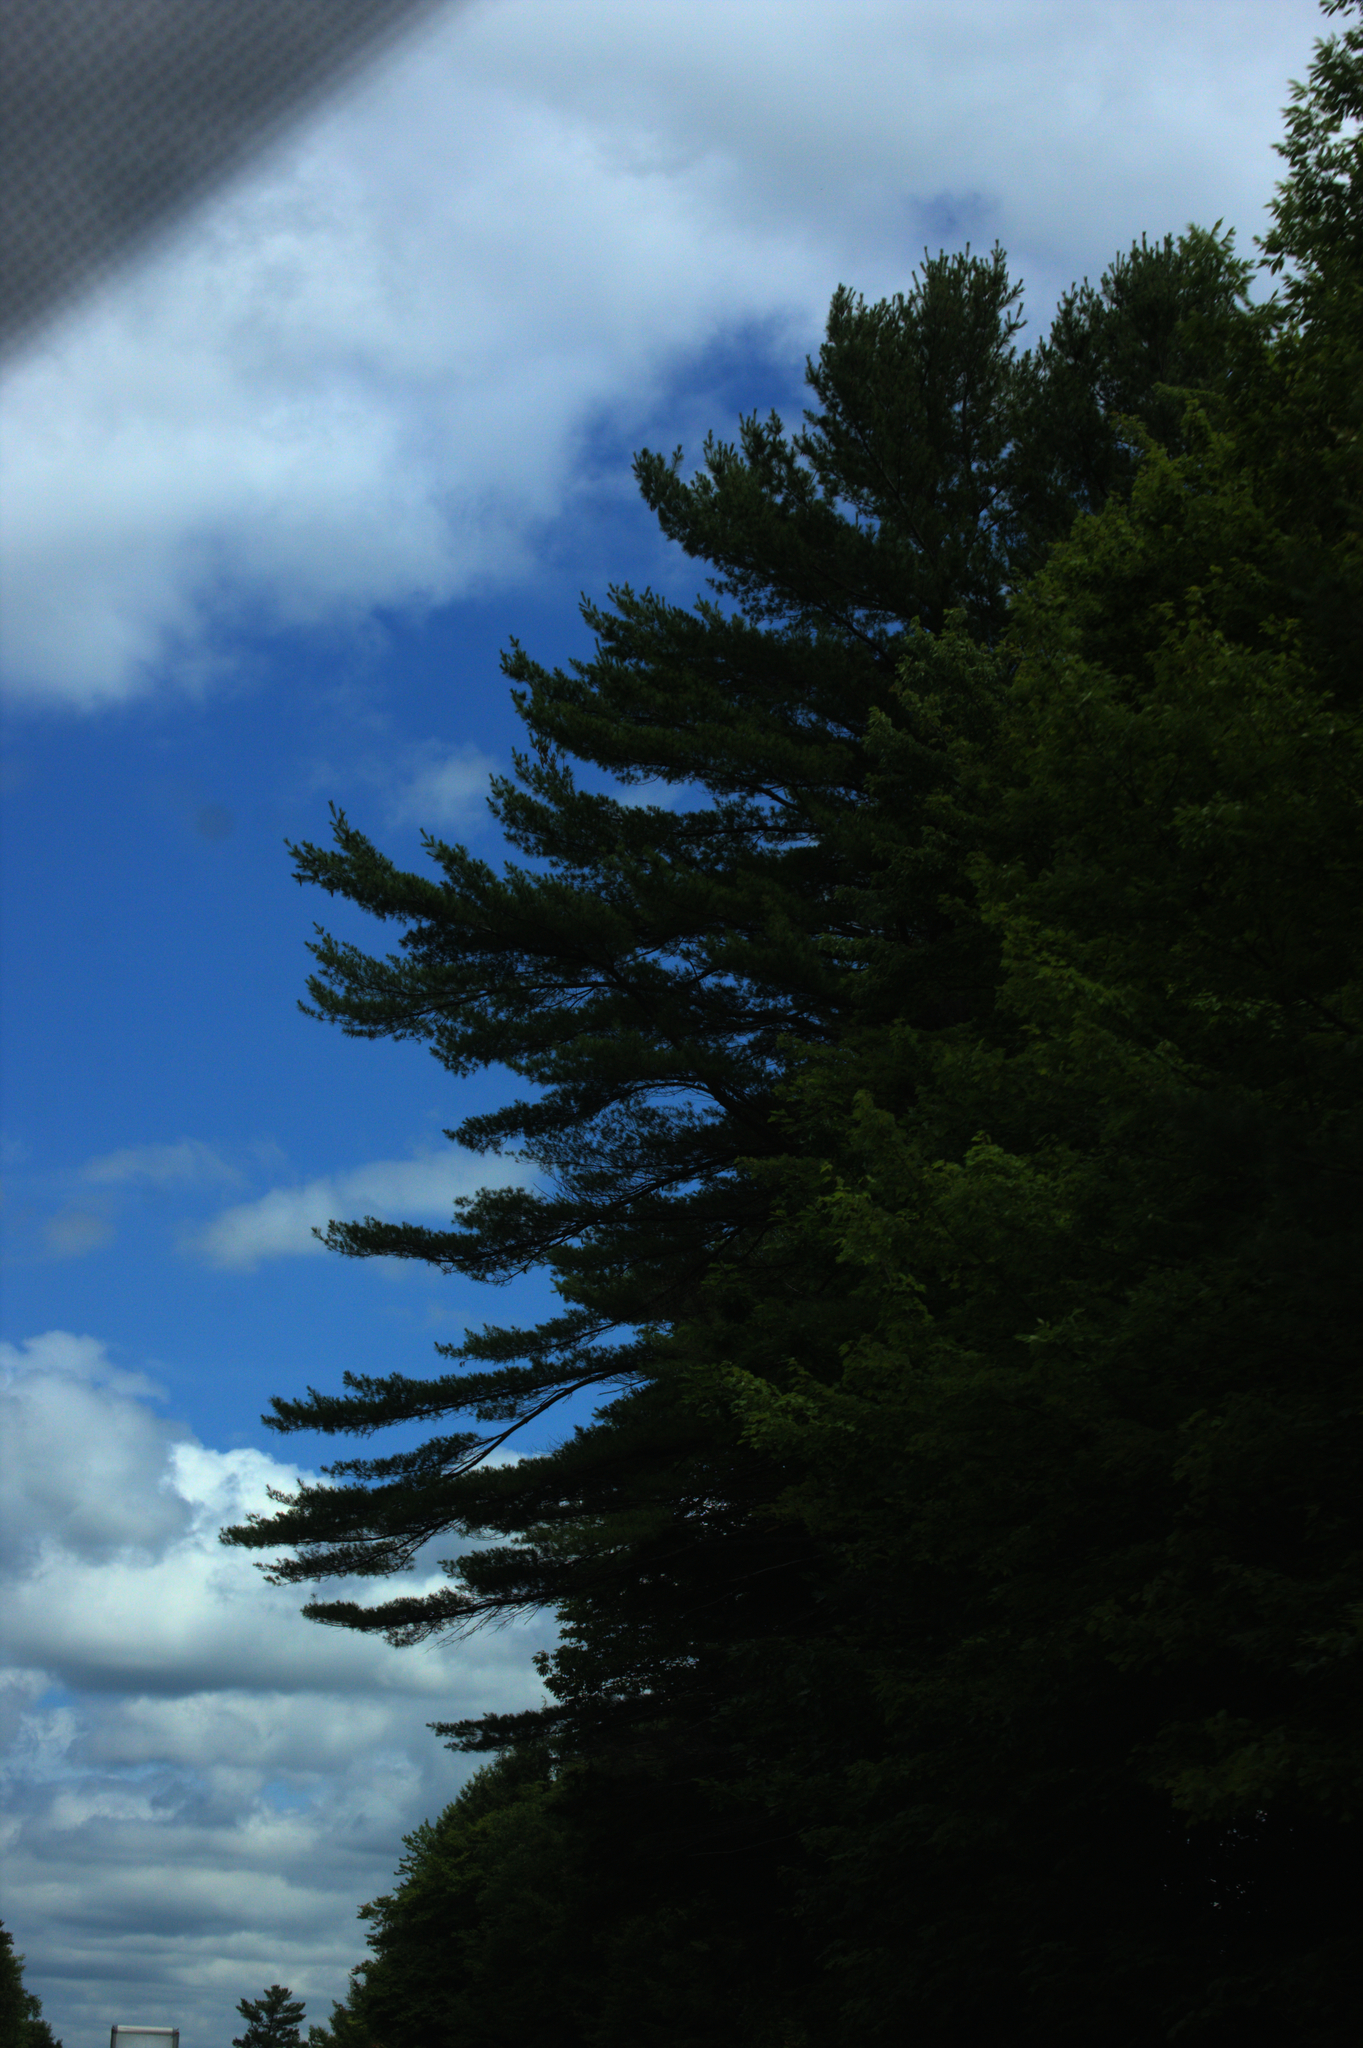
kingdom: Plantae
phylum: Tracheophyta
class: Pinopsida
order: Pinales
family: Pinaceae
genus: Pinus
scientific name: Pinus strobus
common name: Weymouth pine
